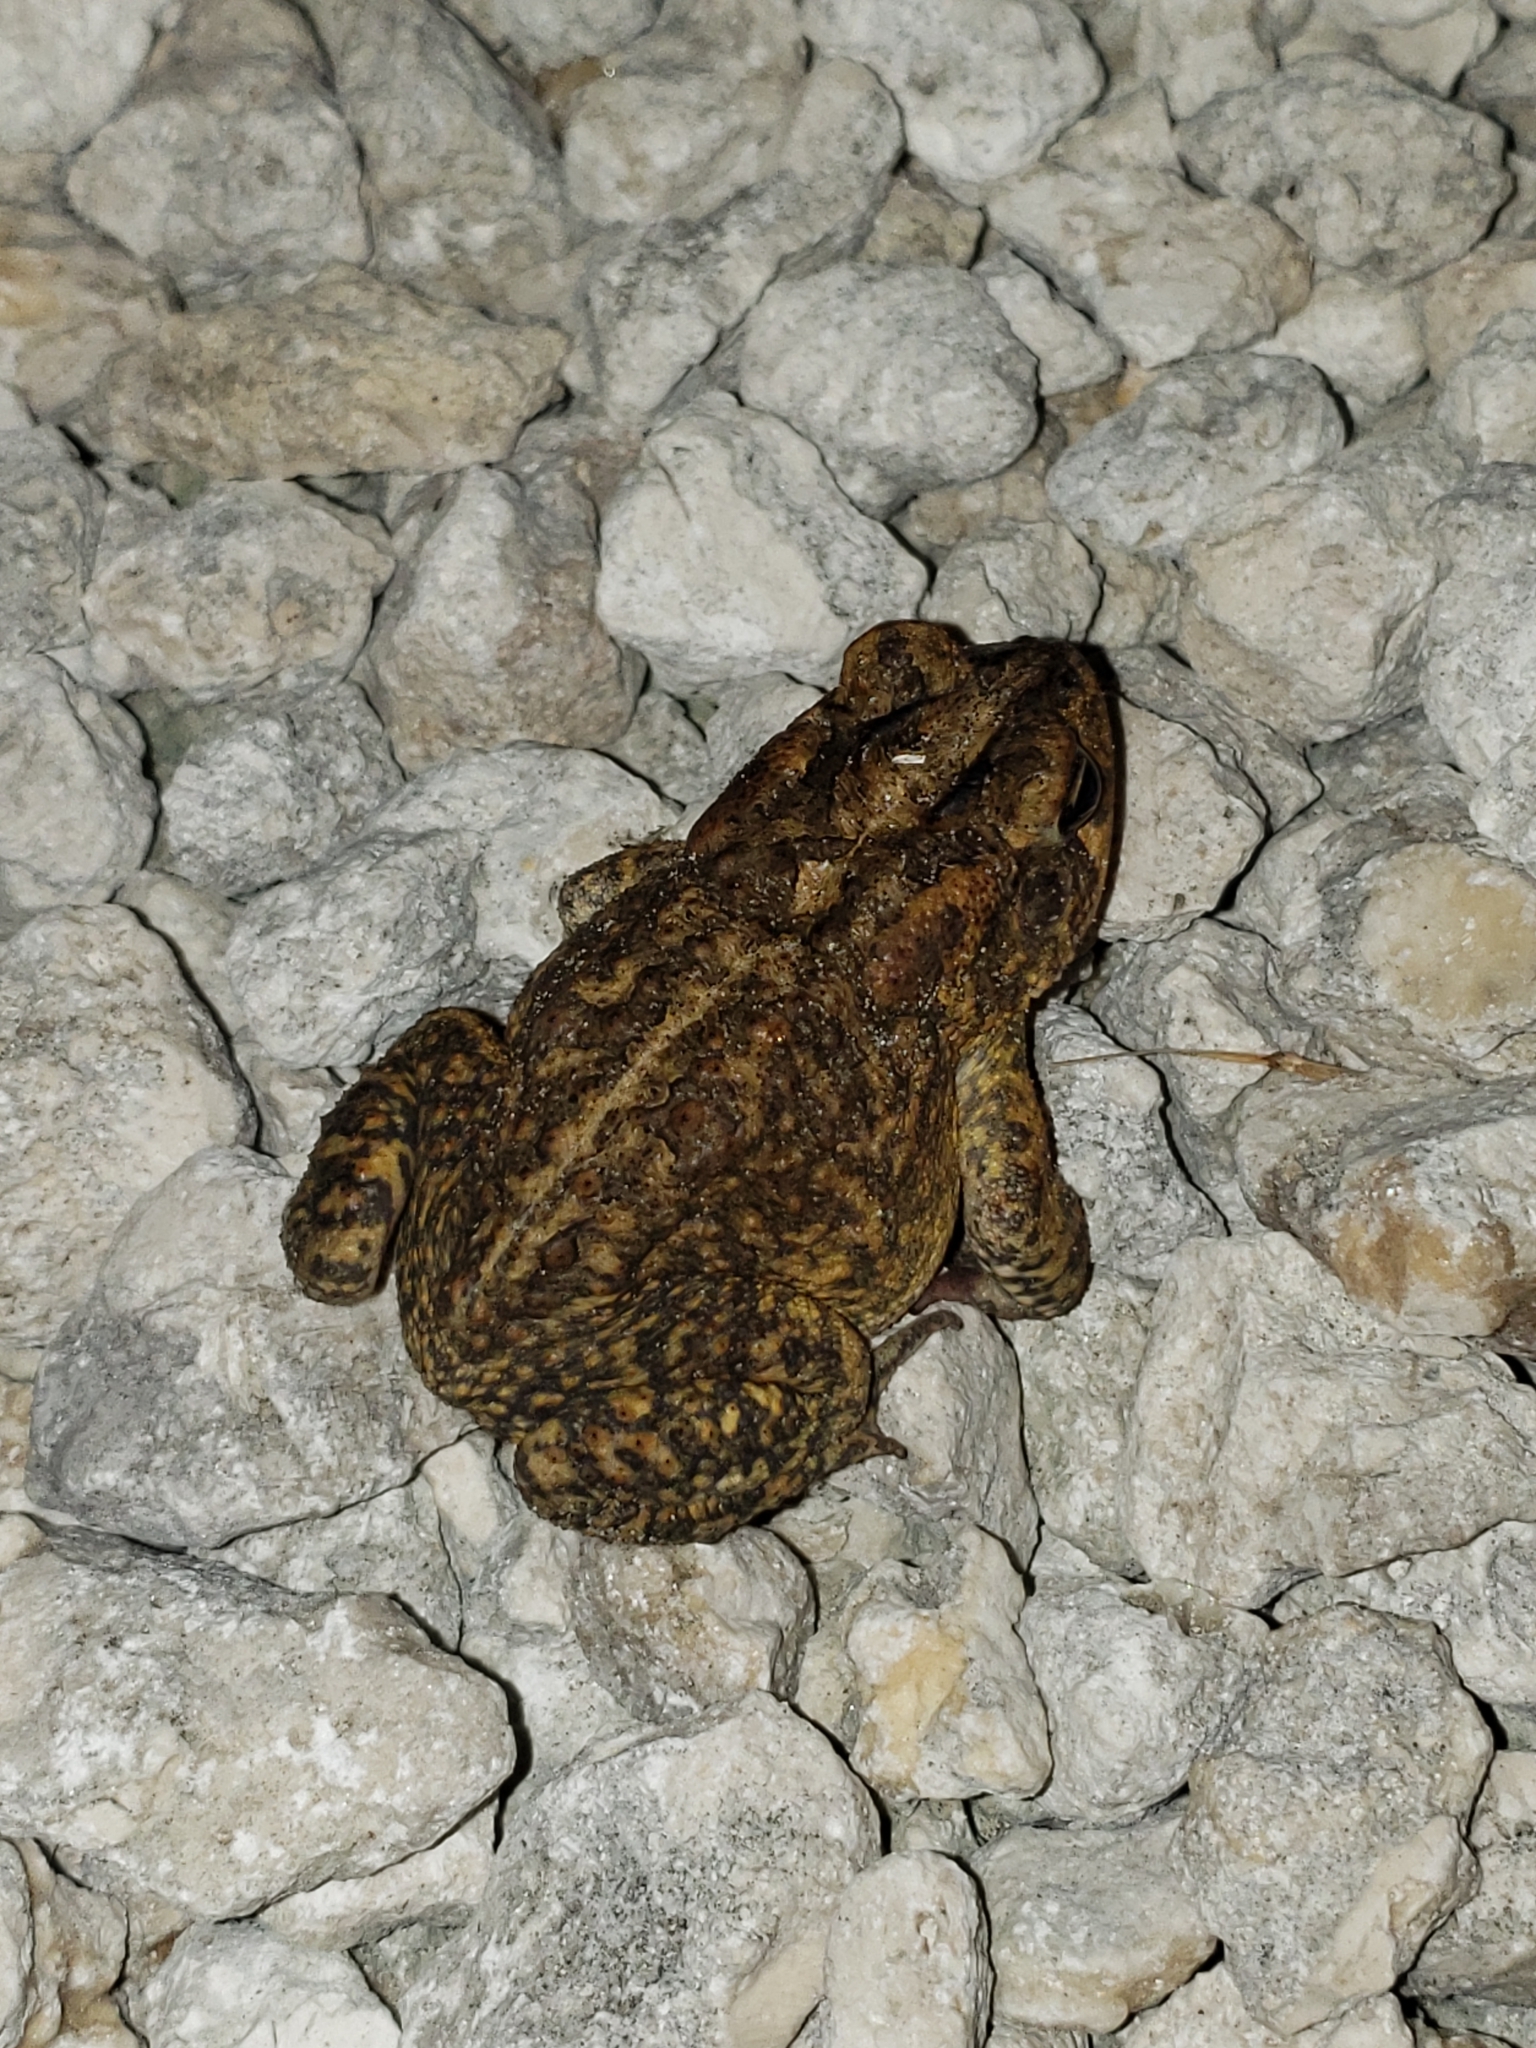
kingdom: Animalia
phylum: Chordata
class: Amphibia
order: Anura
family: Bufonidae
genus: Anaxyrus
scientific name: Anaxyrus terrestris
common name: Southern toad
